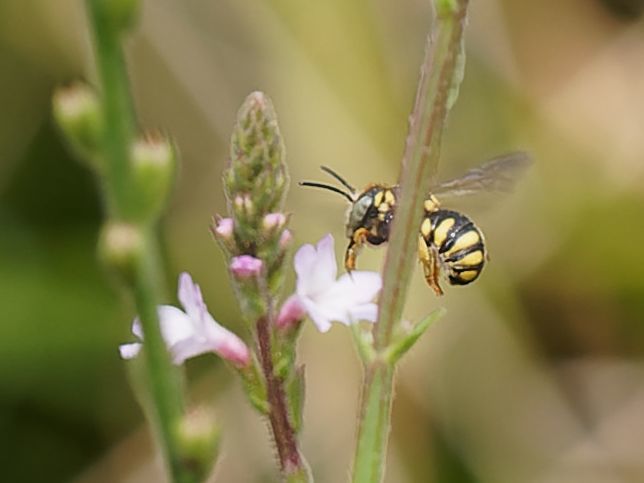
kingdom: Animalia
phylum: Arthropoda
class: Insecta
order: Hymenoptera
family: Megachilidae
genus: Stelis
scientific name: Stelis signata
